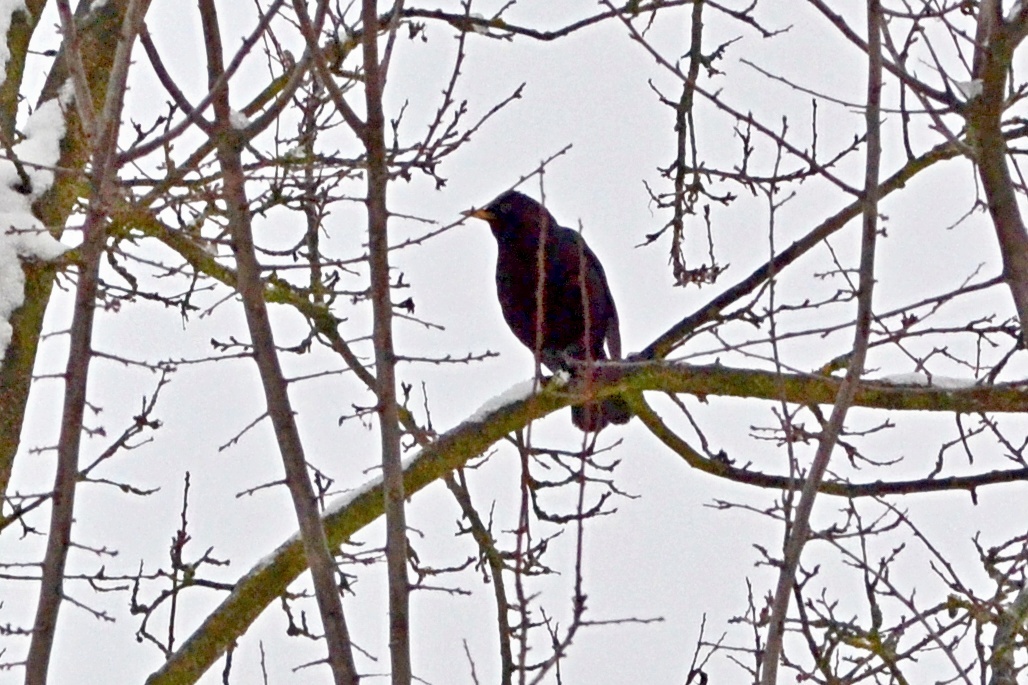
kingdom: Animalia
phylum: Chordata
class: Aves
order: Passeriformes
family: Turdidae
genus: Turdus
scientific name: Turdus merula
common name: Common blackbird
